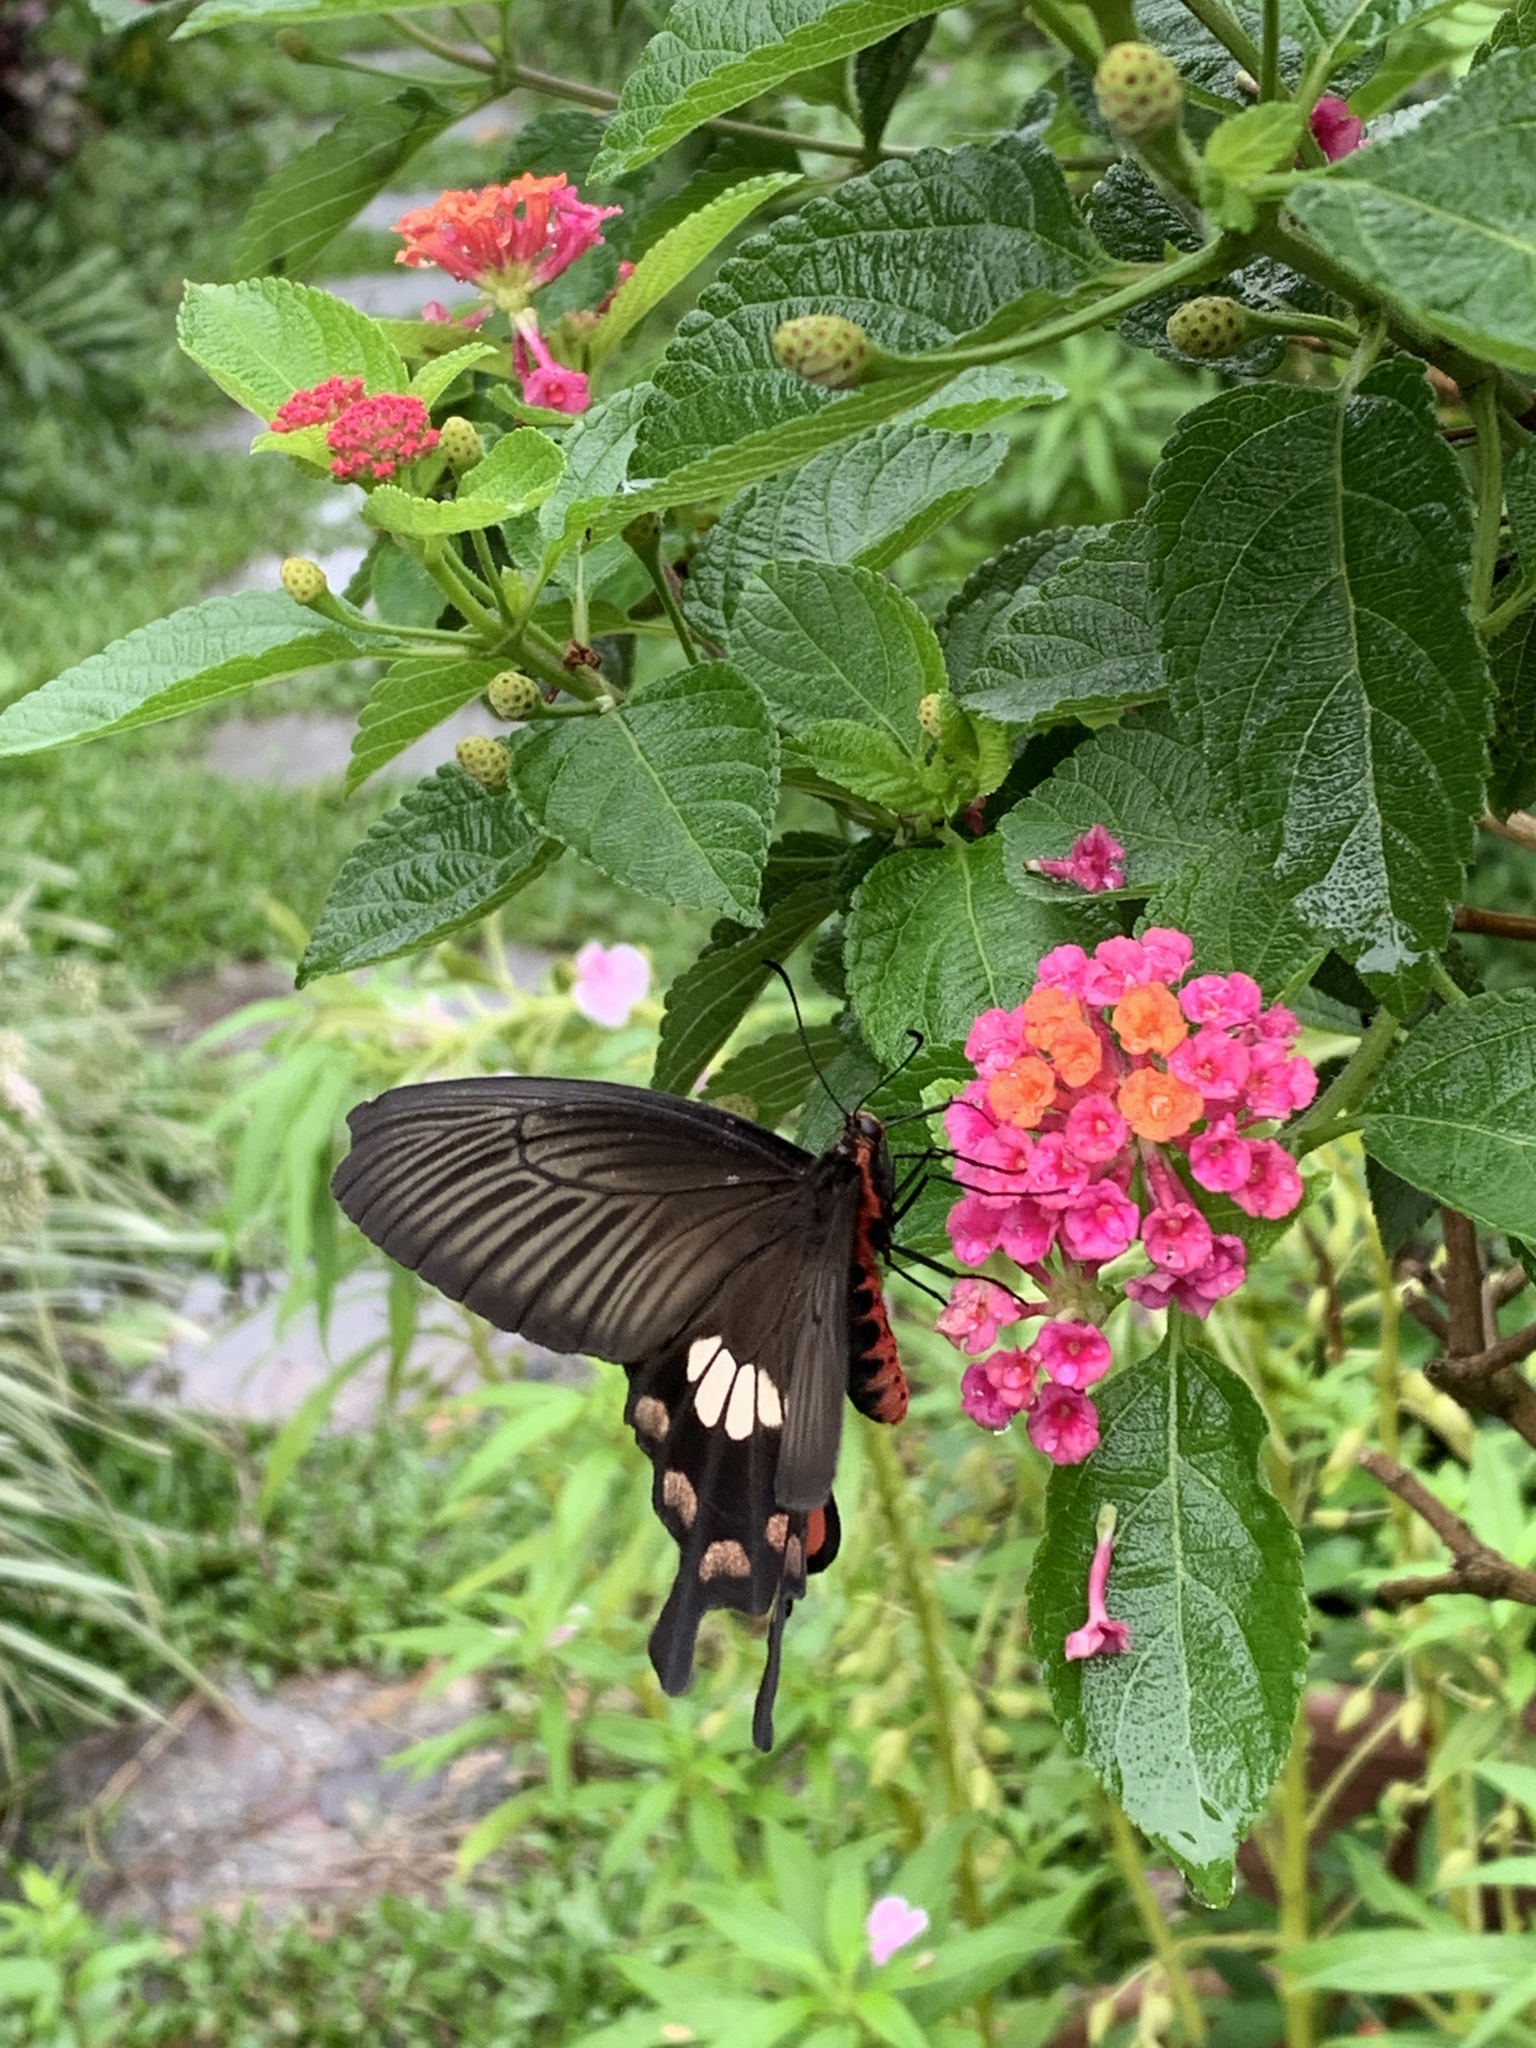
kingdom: Animalia
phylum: Arthropoda
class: Insecta
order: Lepidoptera
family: Papilionidae
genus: Pachliopta
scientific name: Pachliopta aristolochiae
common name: Common rose
